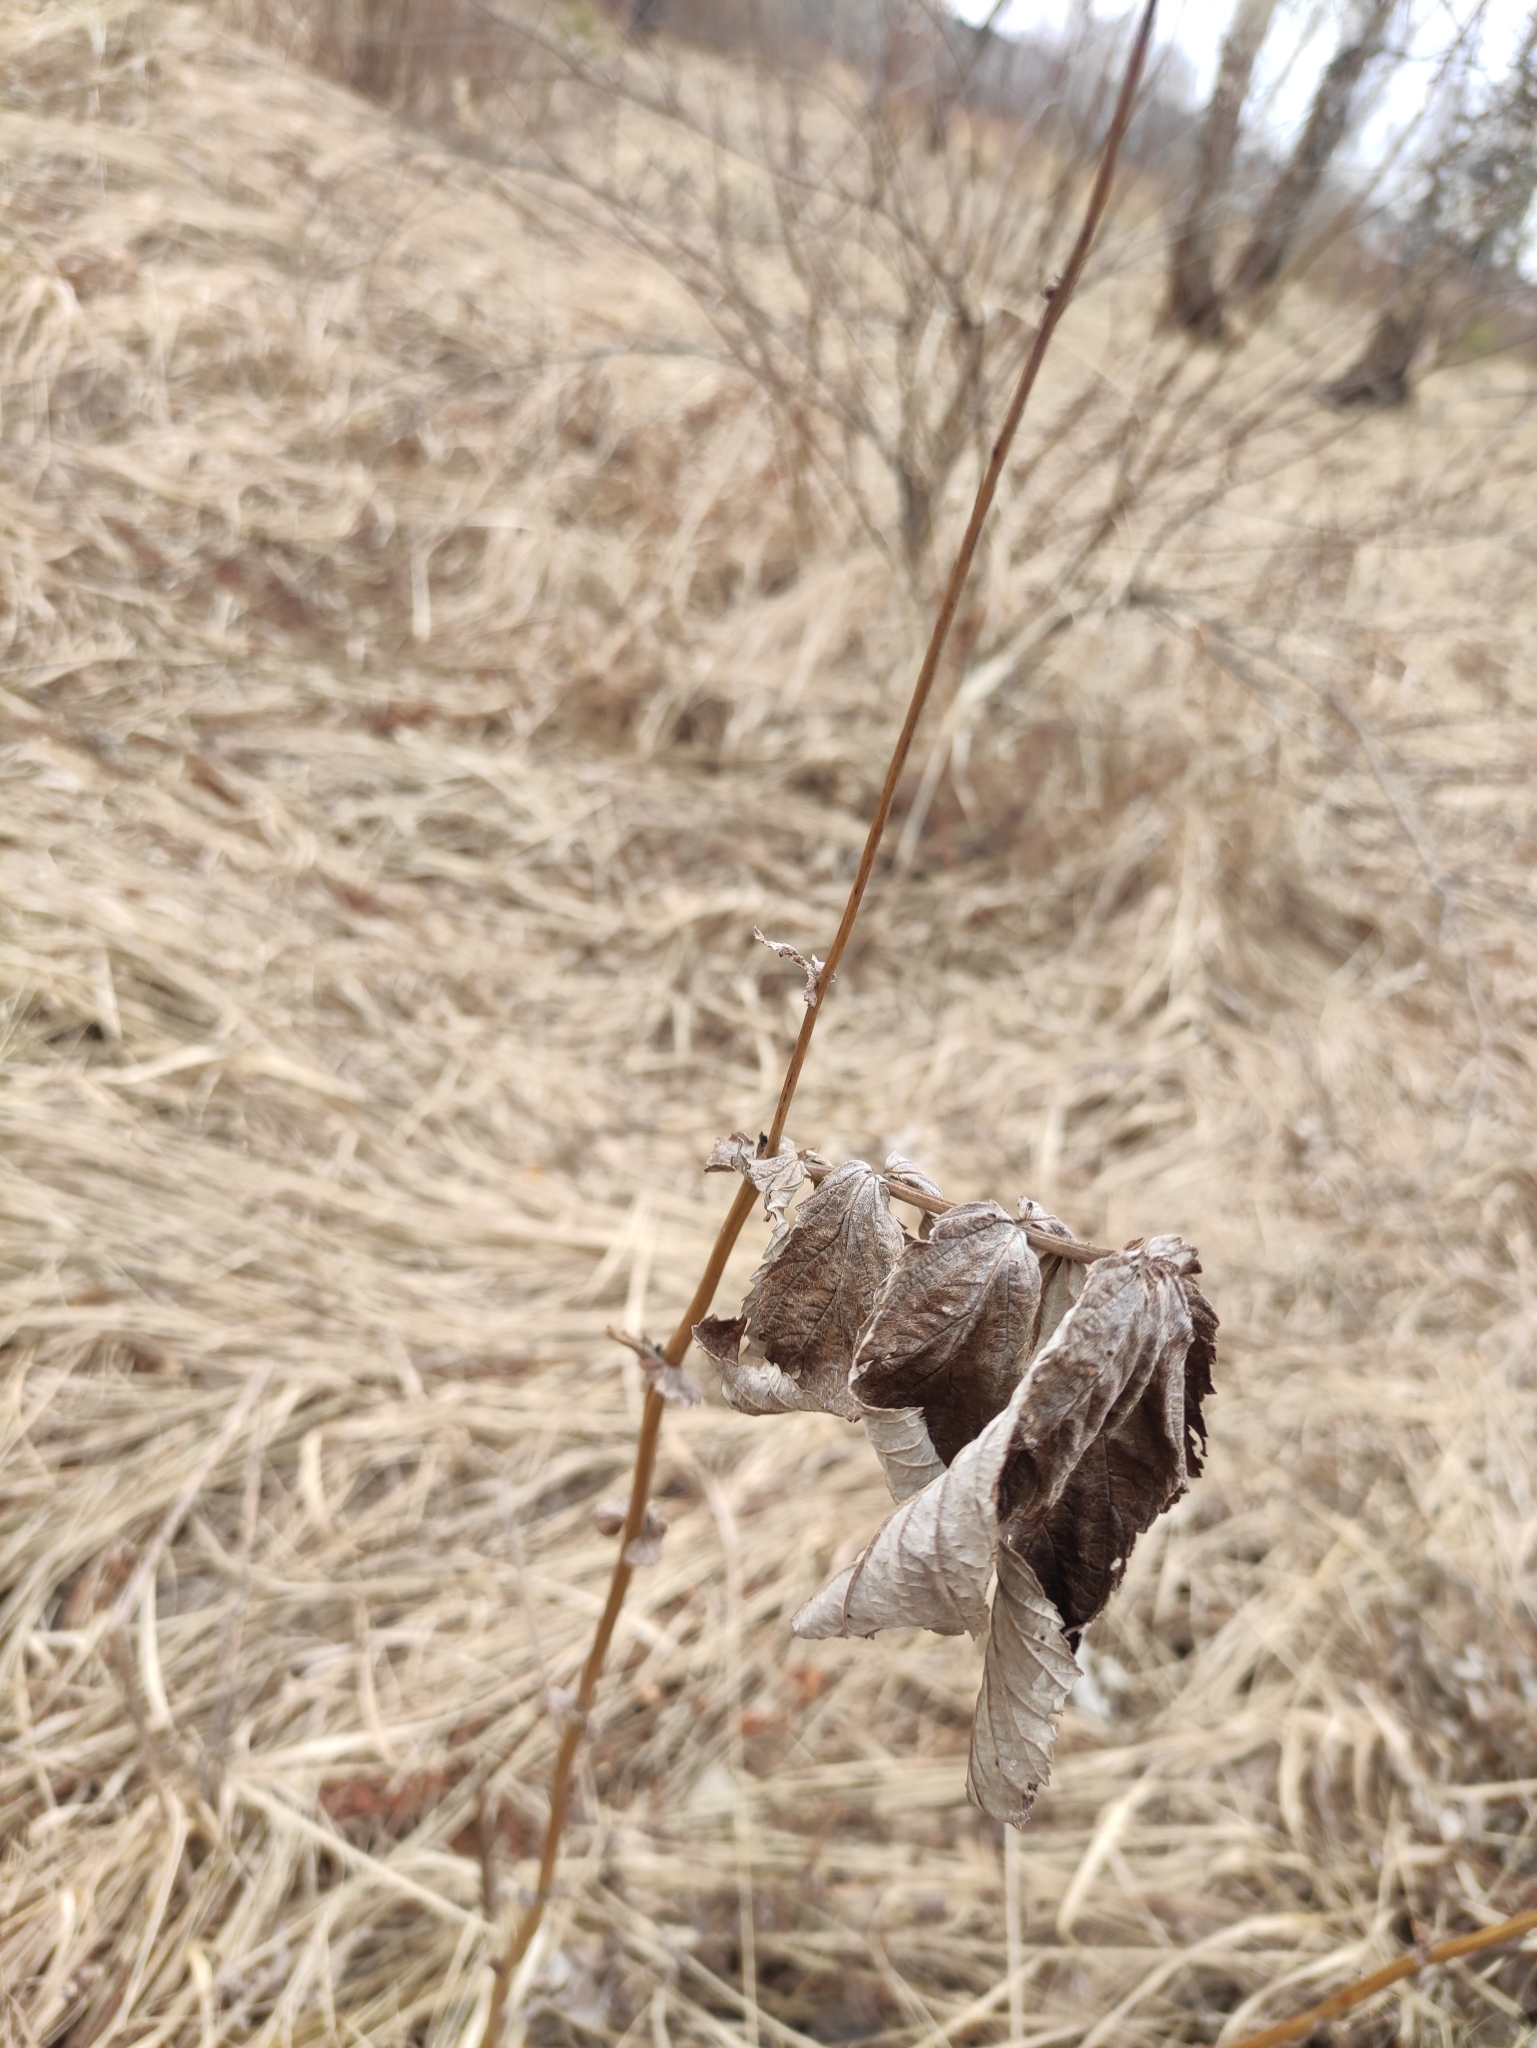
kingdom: Plantae
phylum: Tracheophyta
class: Magnoliopsida
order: Rosales
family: Rosaceae
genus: Filipendula
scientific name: Filipendula ulmaria
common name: Meadowsweet
